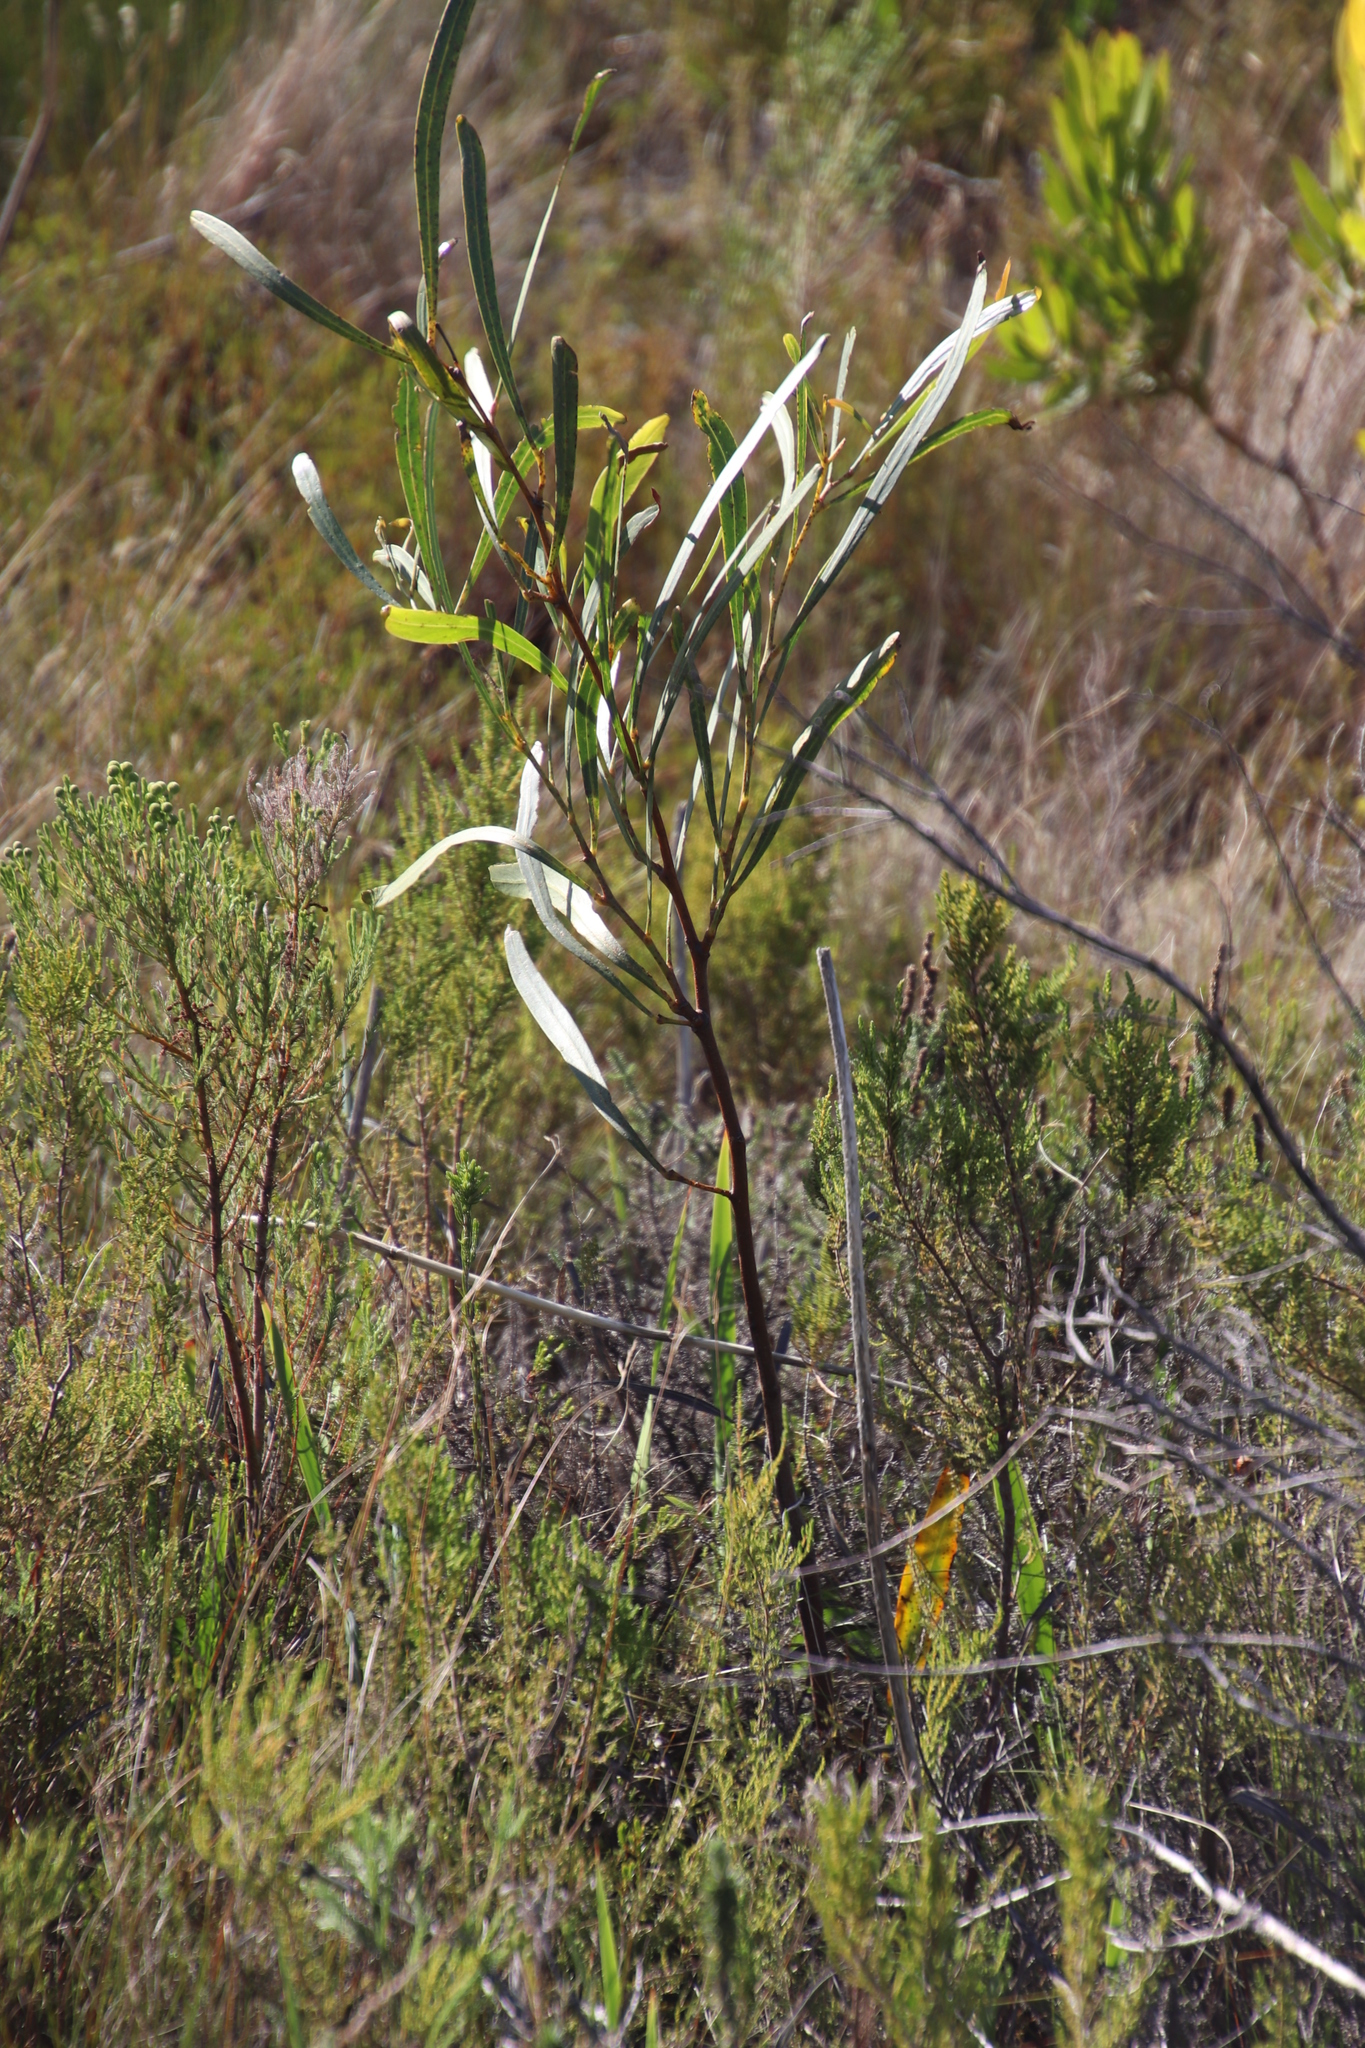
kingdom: Plantae
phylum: Tracheophyta
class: Magnoliopsida
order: Fabales
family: Fabaceae
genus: Acacia
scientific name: Acacia saligna
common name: Orange wattle
